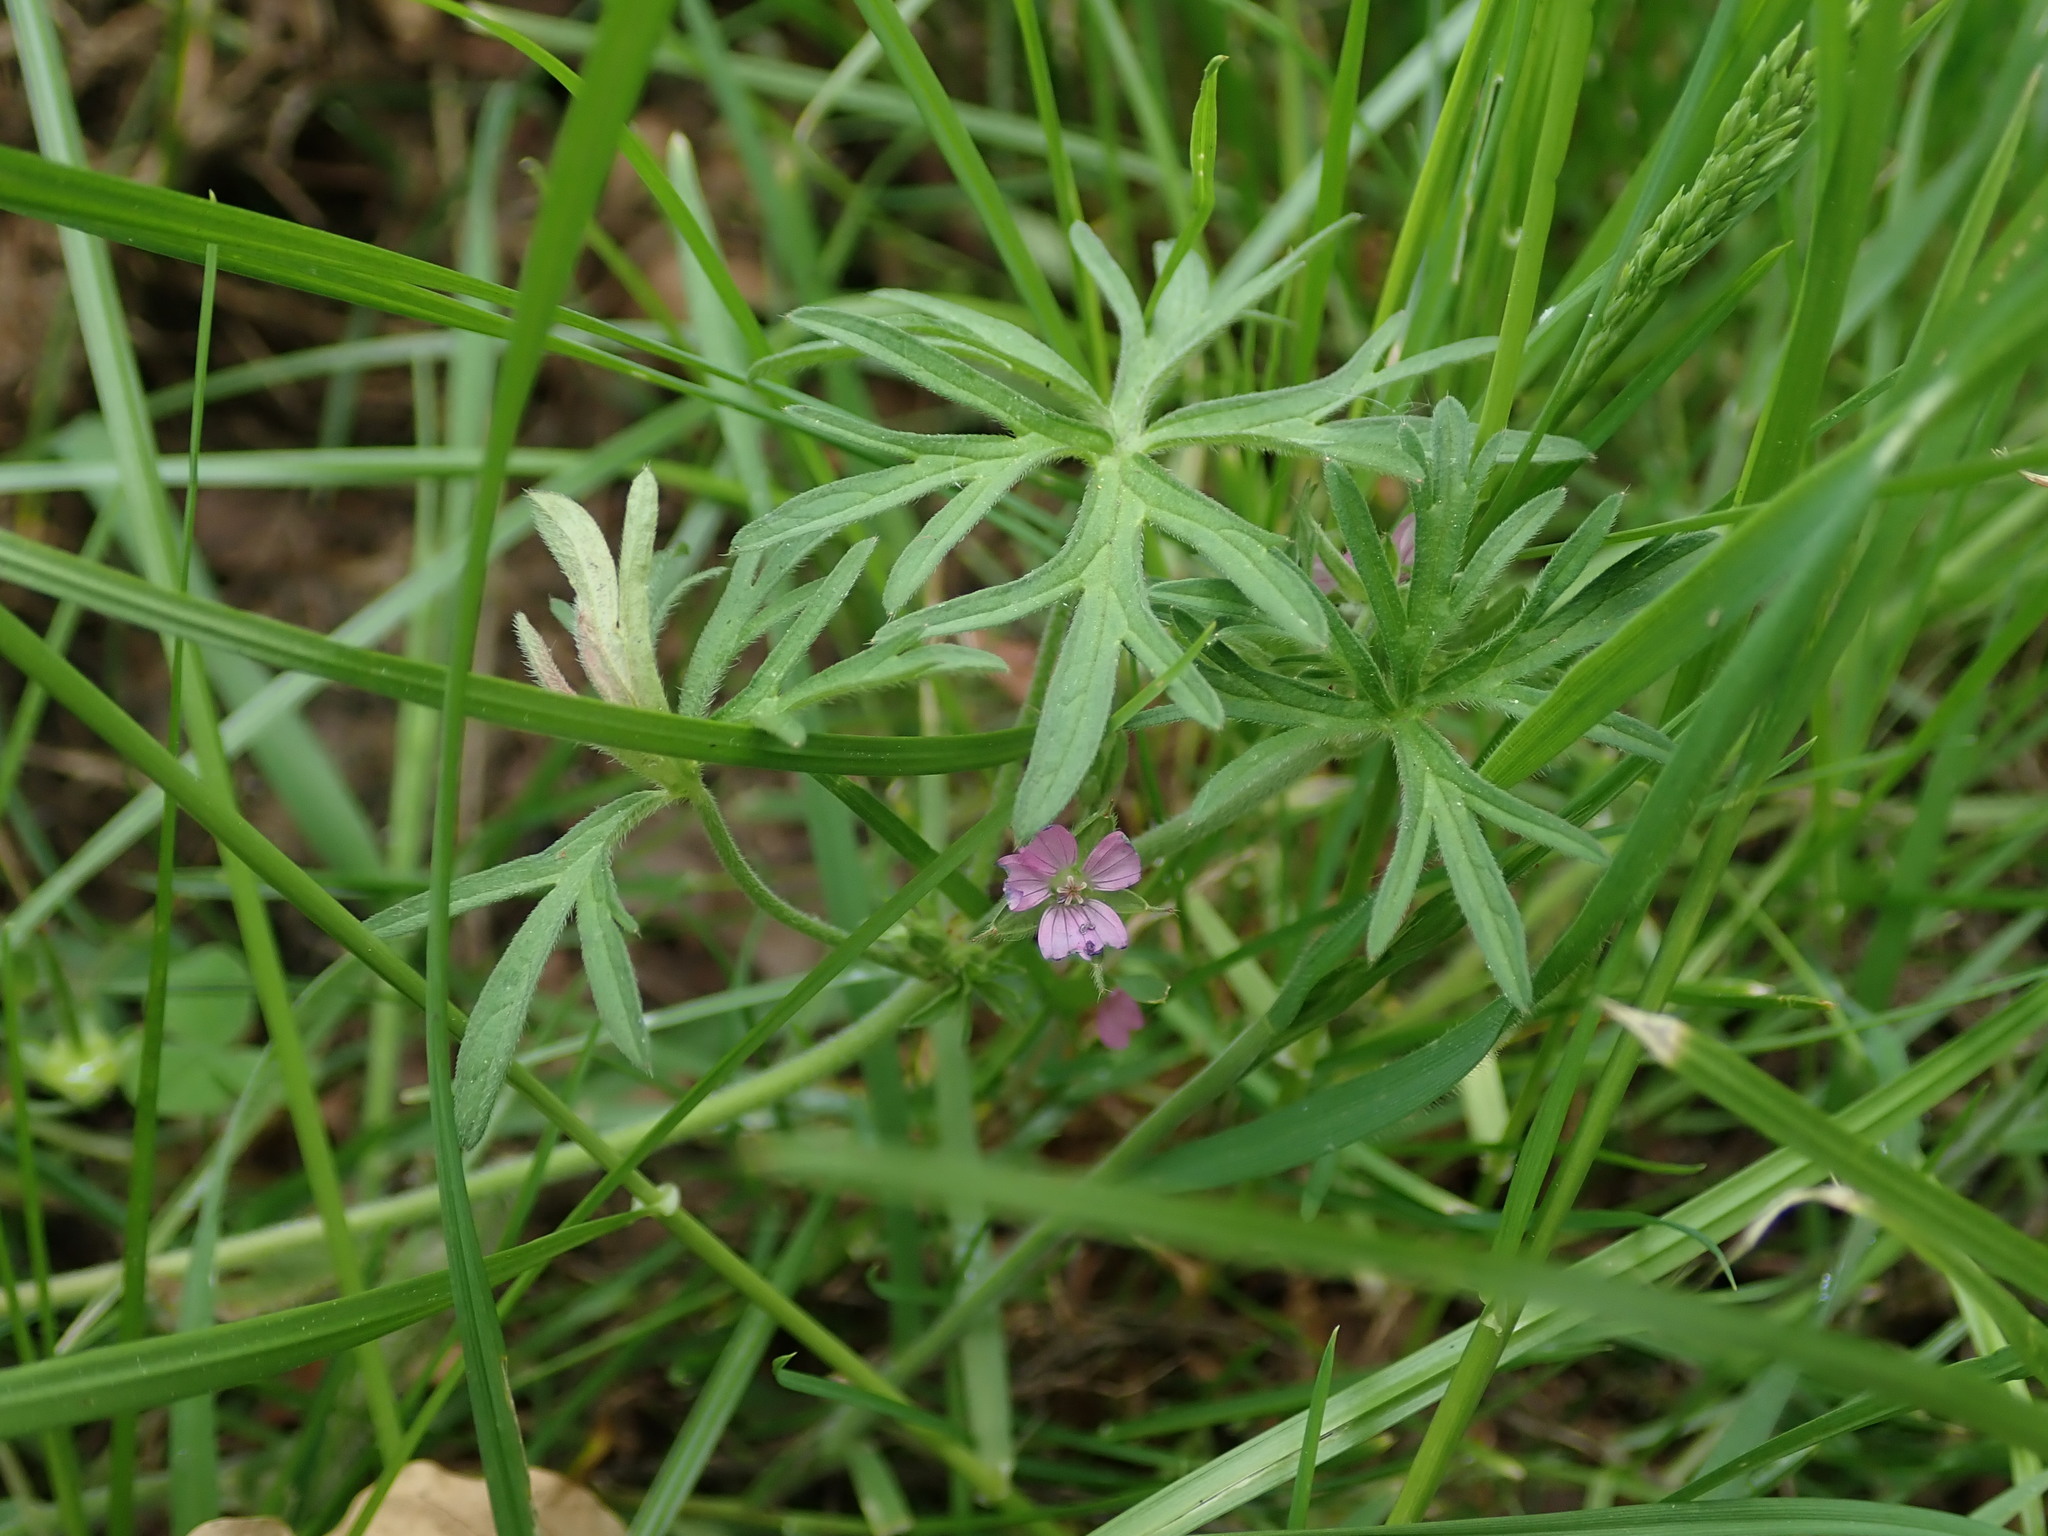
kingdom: Plantae
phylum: Tracheophyta
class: Magnoliopsida
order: Geraniales
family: Geraniaceae
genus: Geranium
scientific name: Geranium dissectum
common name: Cut-leaved crane's-bill
